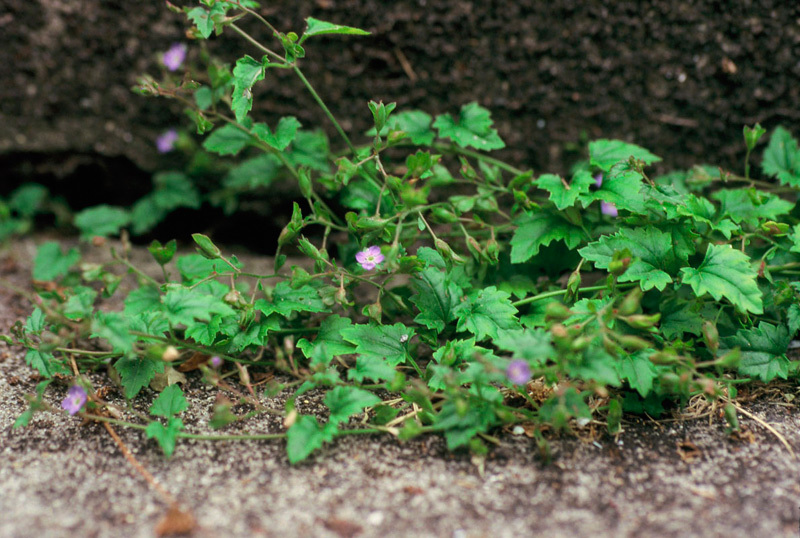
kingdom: Plantae
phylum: Tracheophyta
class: Magnoliopsida
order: Lamiales
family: Plantaginaceae
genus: Veronica
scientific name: Veronica plebeia
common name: Speedwell
